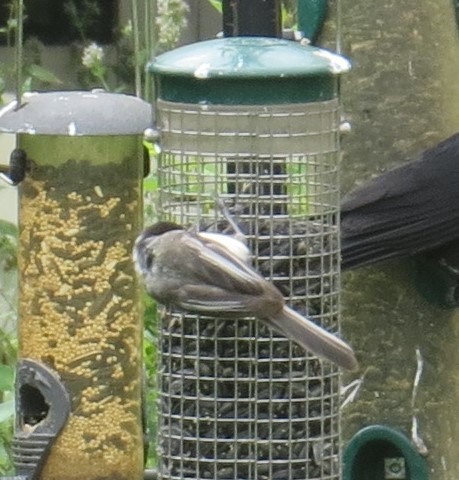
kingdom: Animalia
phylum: Chordata
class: Aves
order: Passeriformes
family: Paridae
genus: Poecile
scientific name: Poecile atricapillus
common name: Black-capped chickadee
